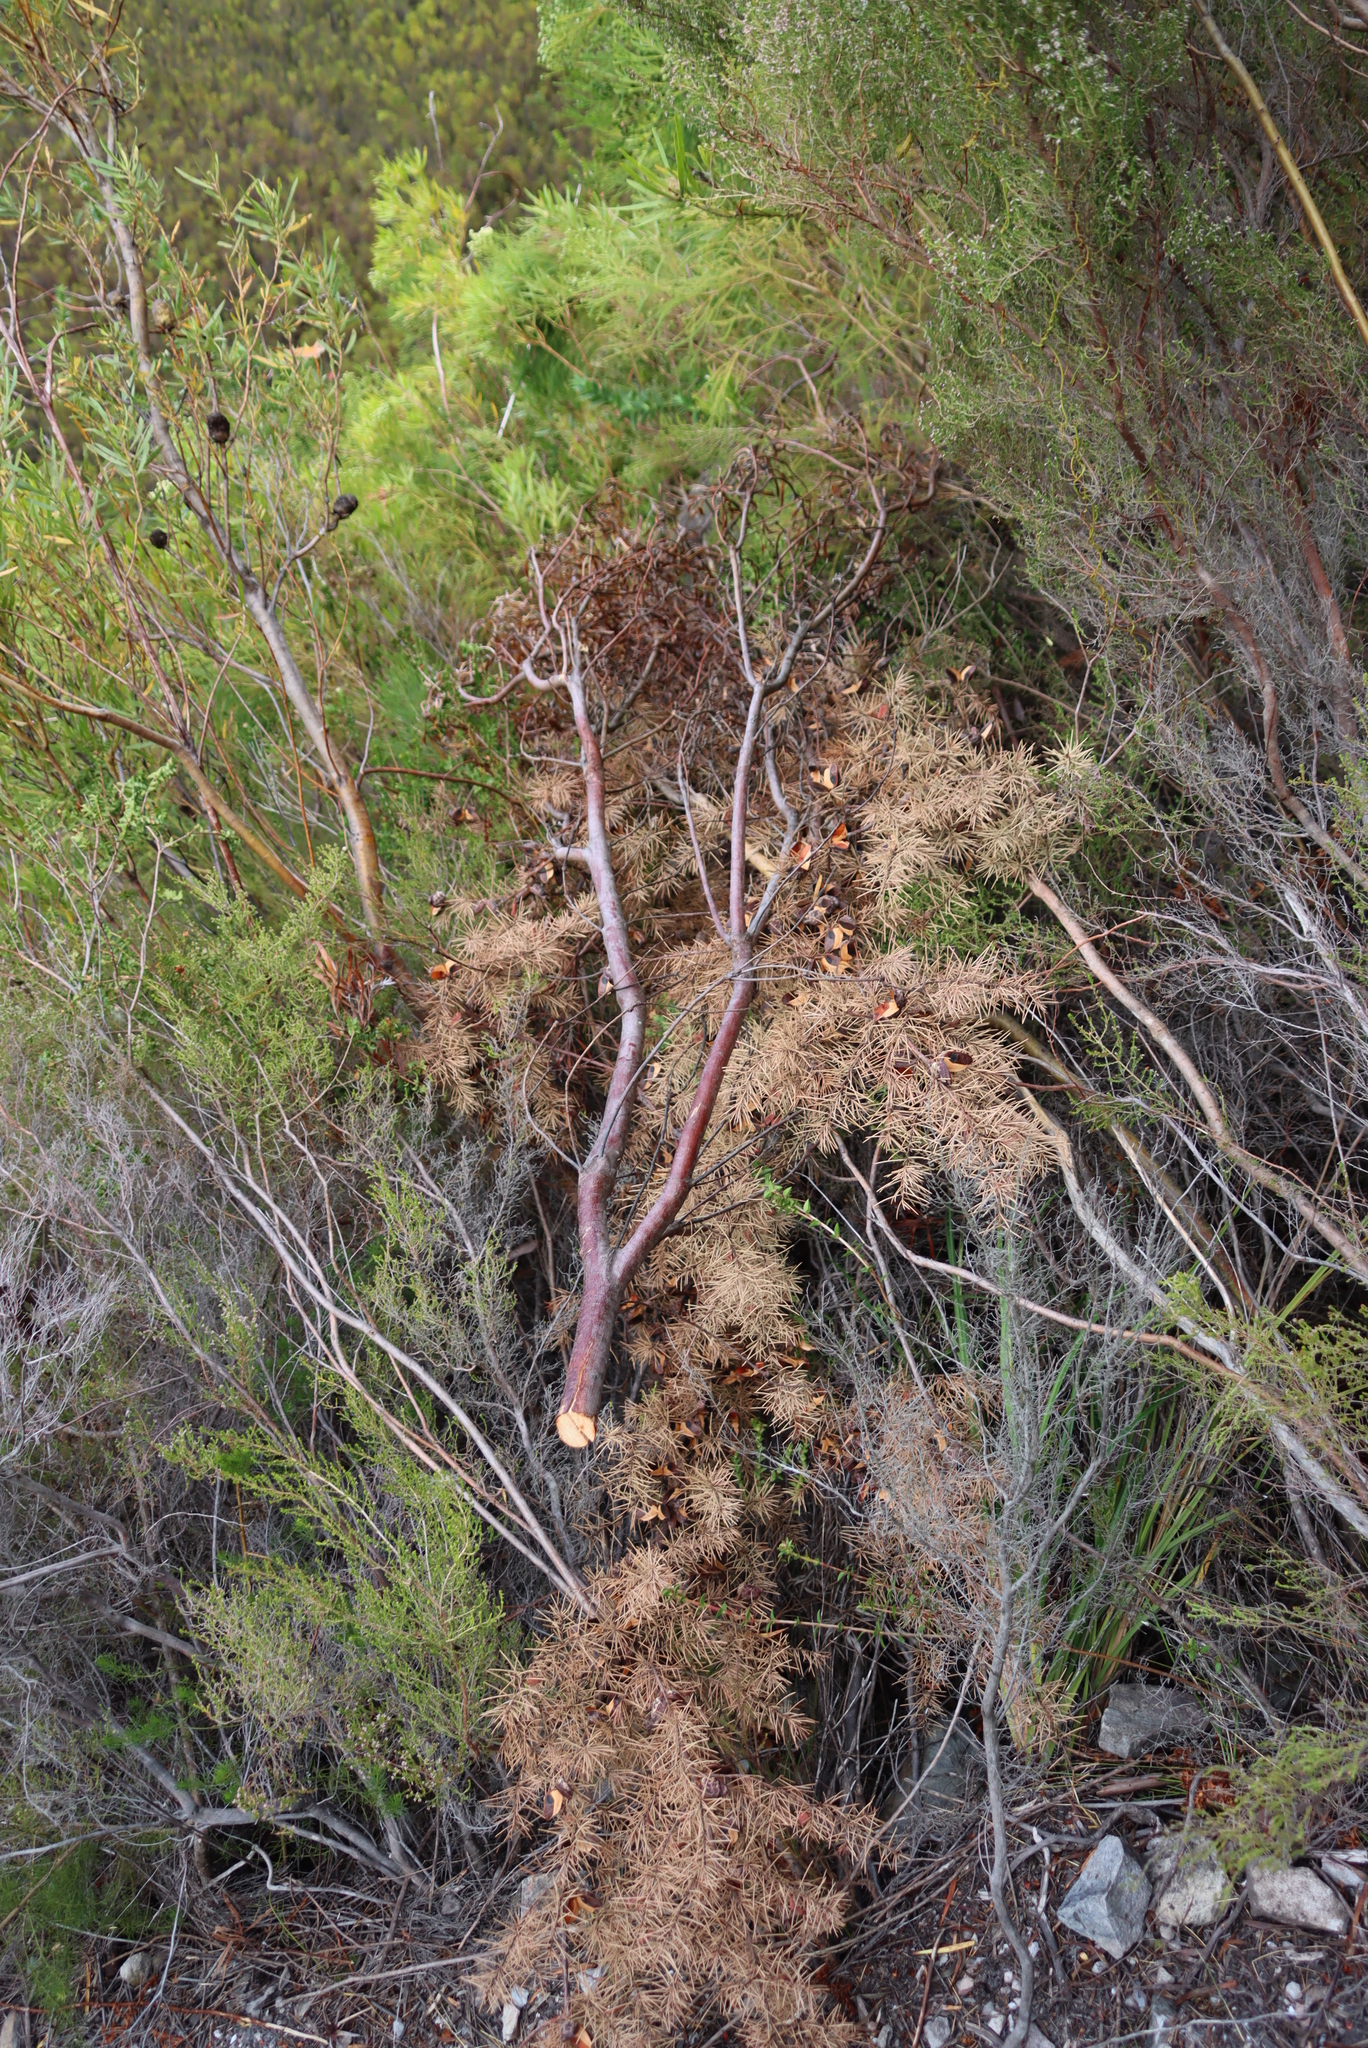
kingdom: Plantae
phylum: Tracheophyta
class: Magnoliopsida
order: Proteales
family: Proteaceae
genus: Hakea
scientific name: Hakea sericea
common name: Needle bush
